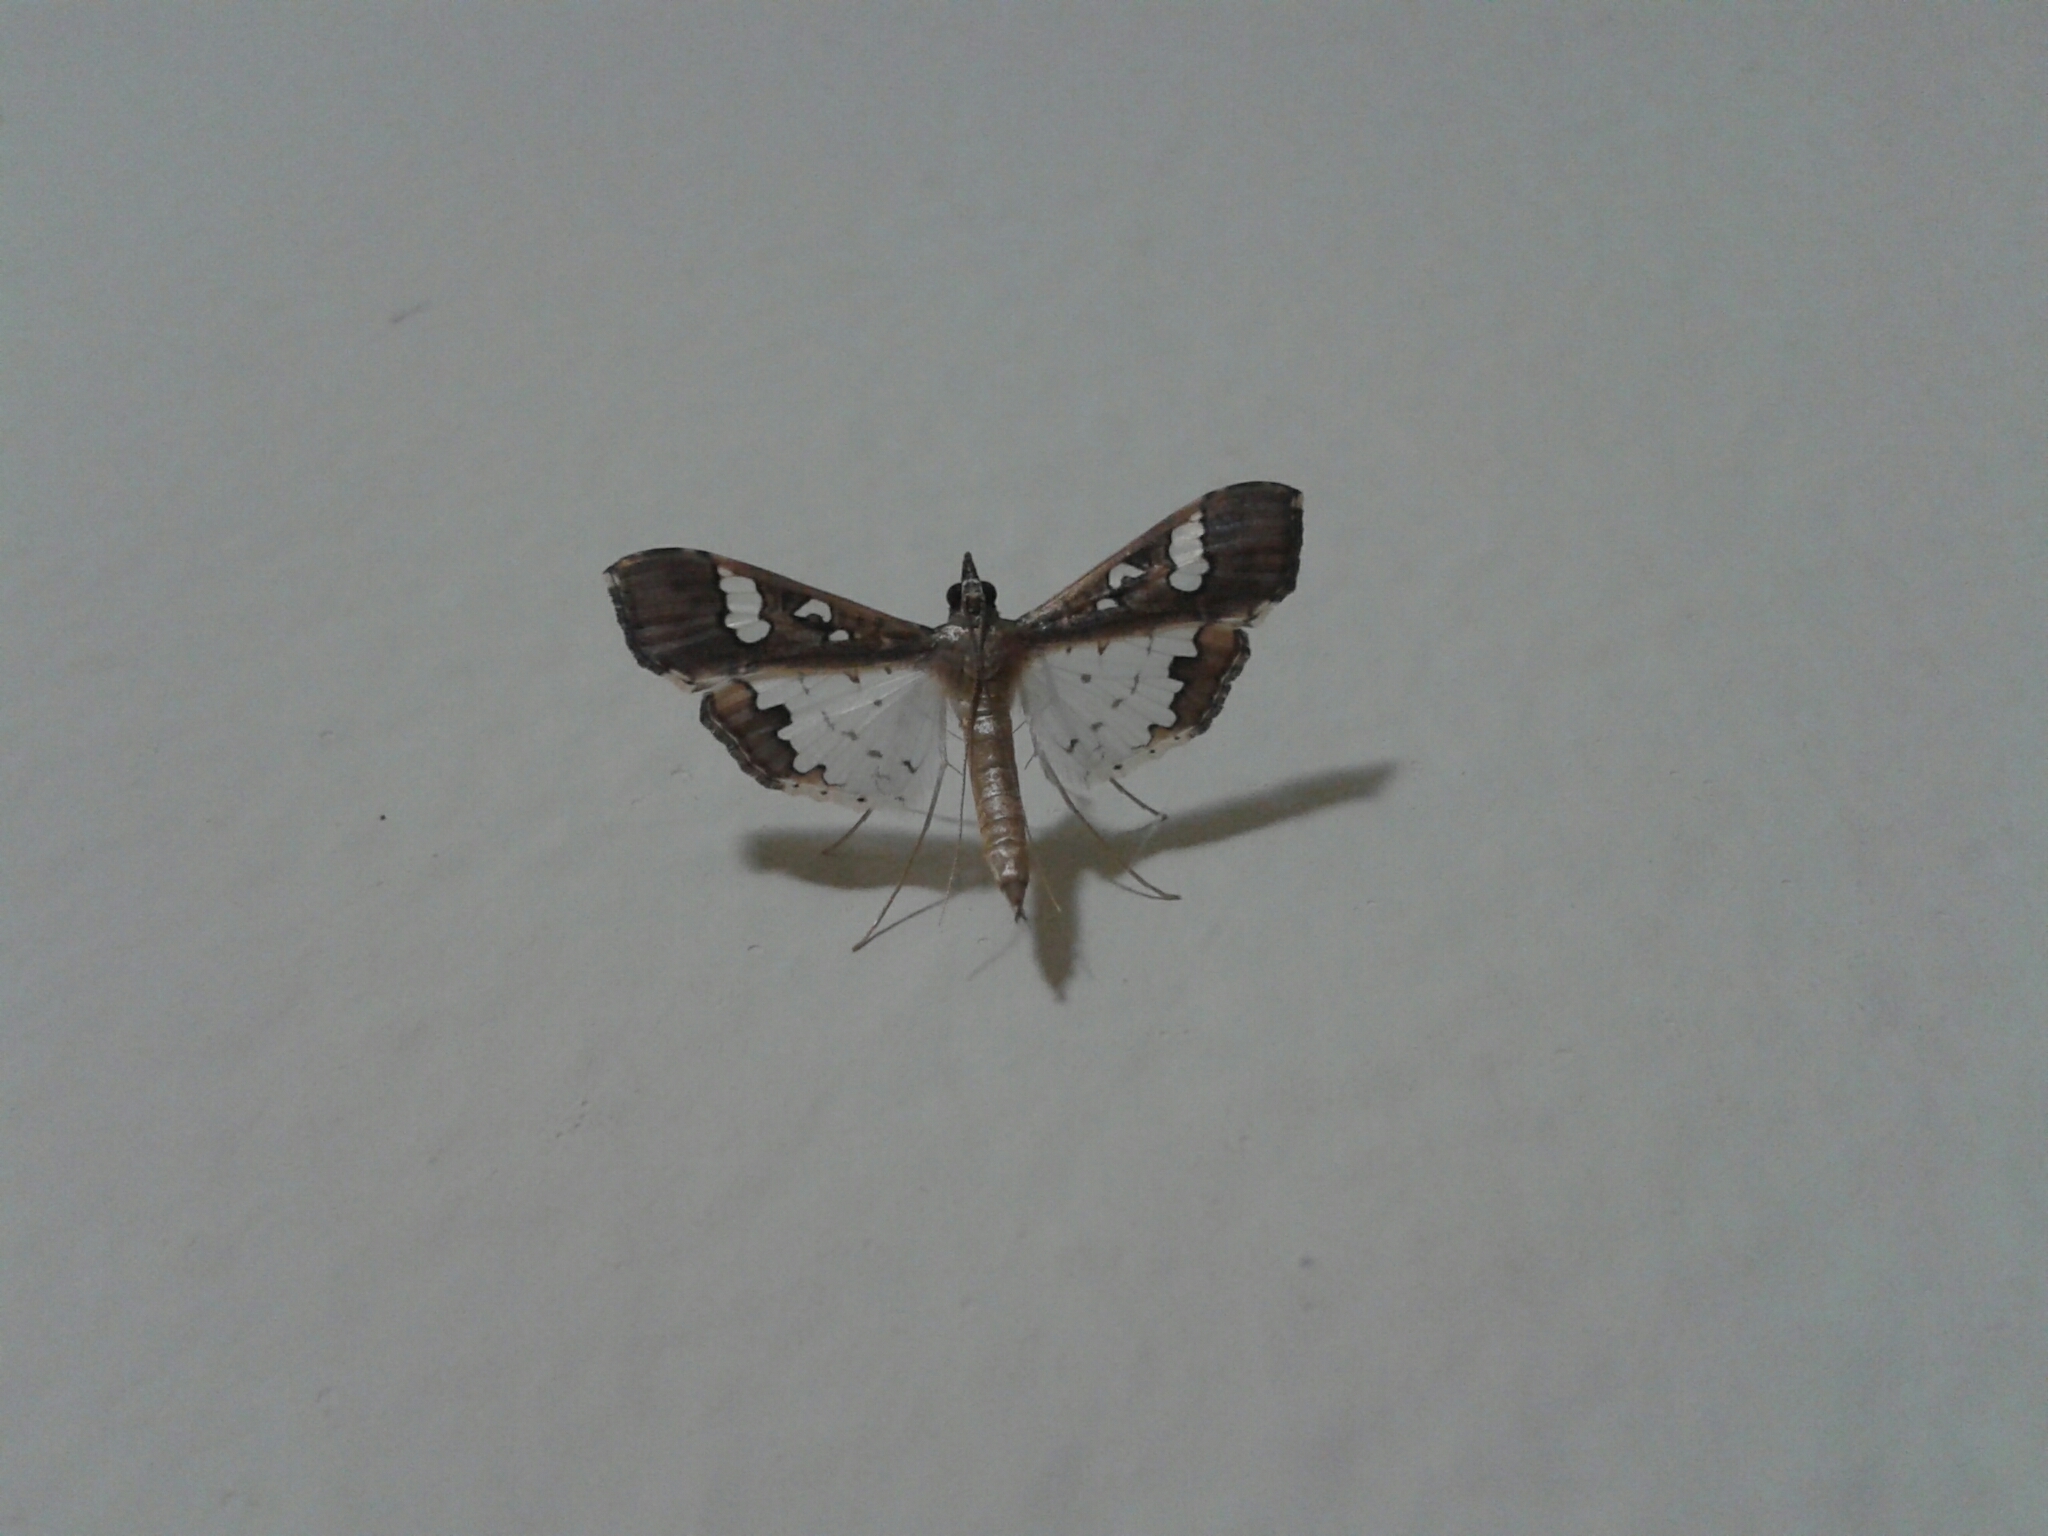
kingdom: Animalia
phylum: Arthropoda
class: Insecta
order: Lepidoptera
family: Crambidae
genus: Maruca
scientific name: Maruca vitrata
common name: Maruca pod borer
